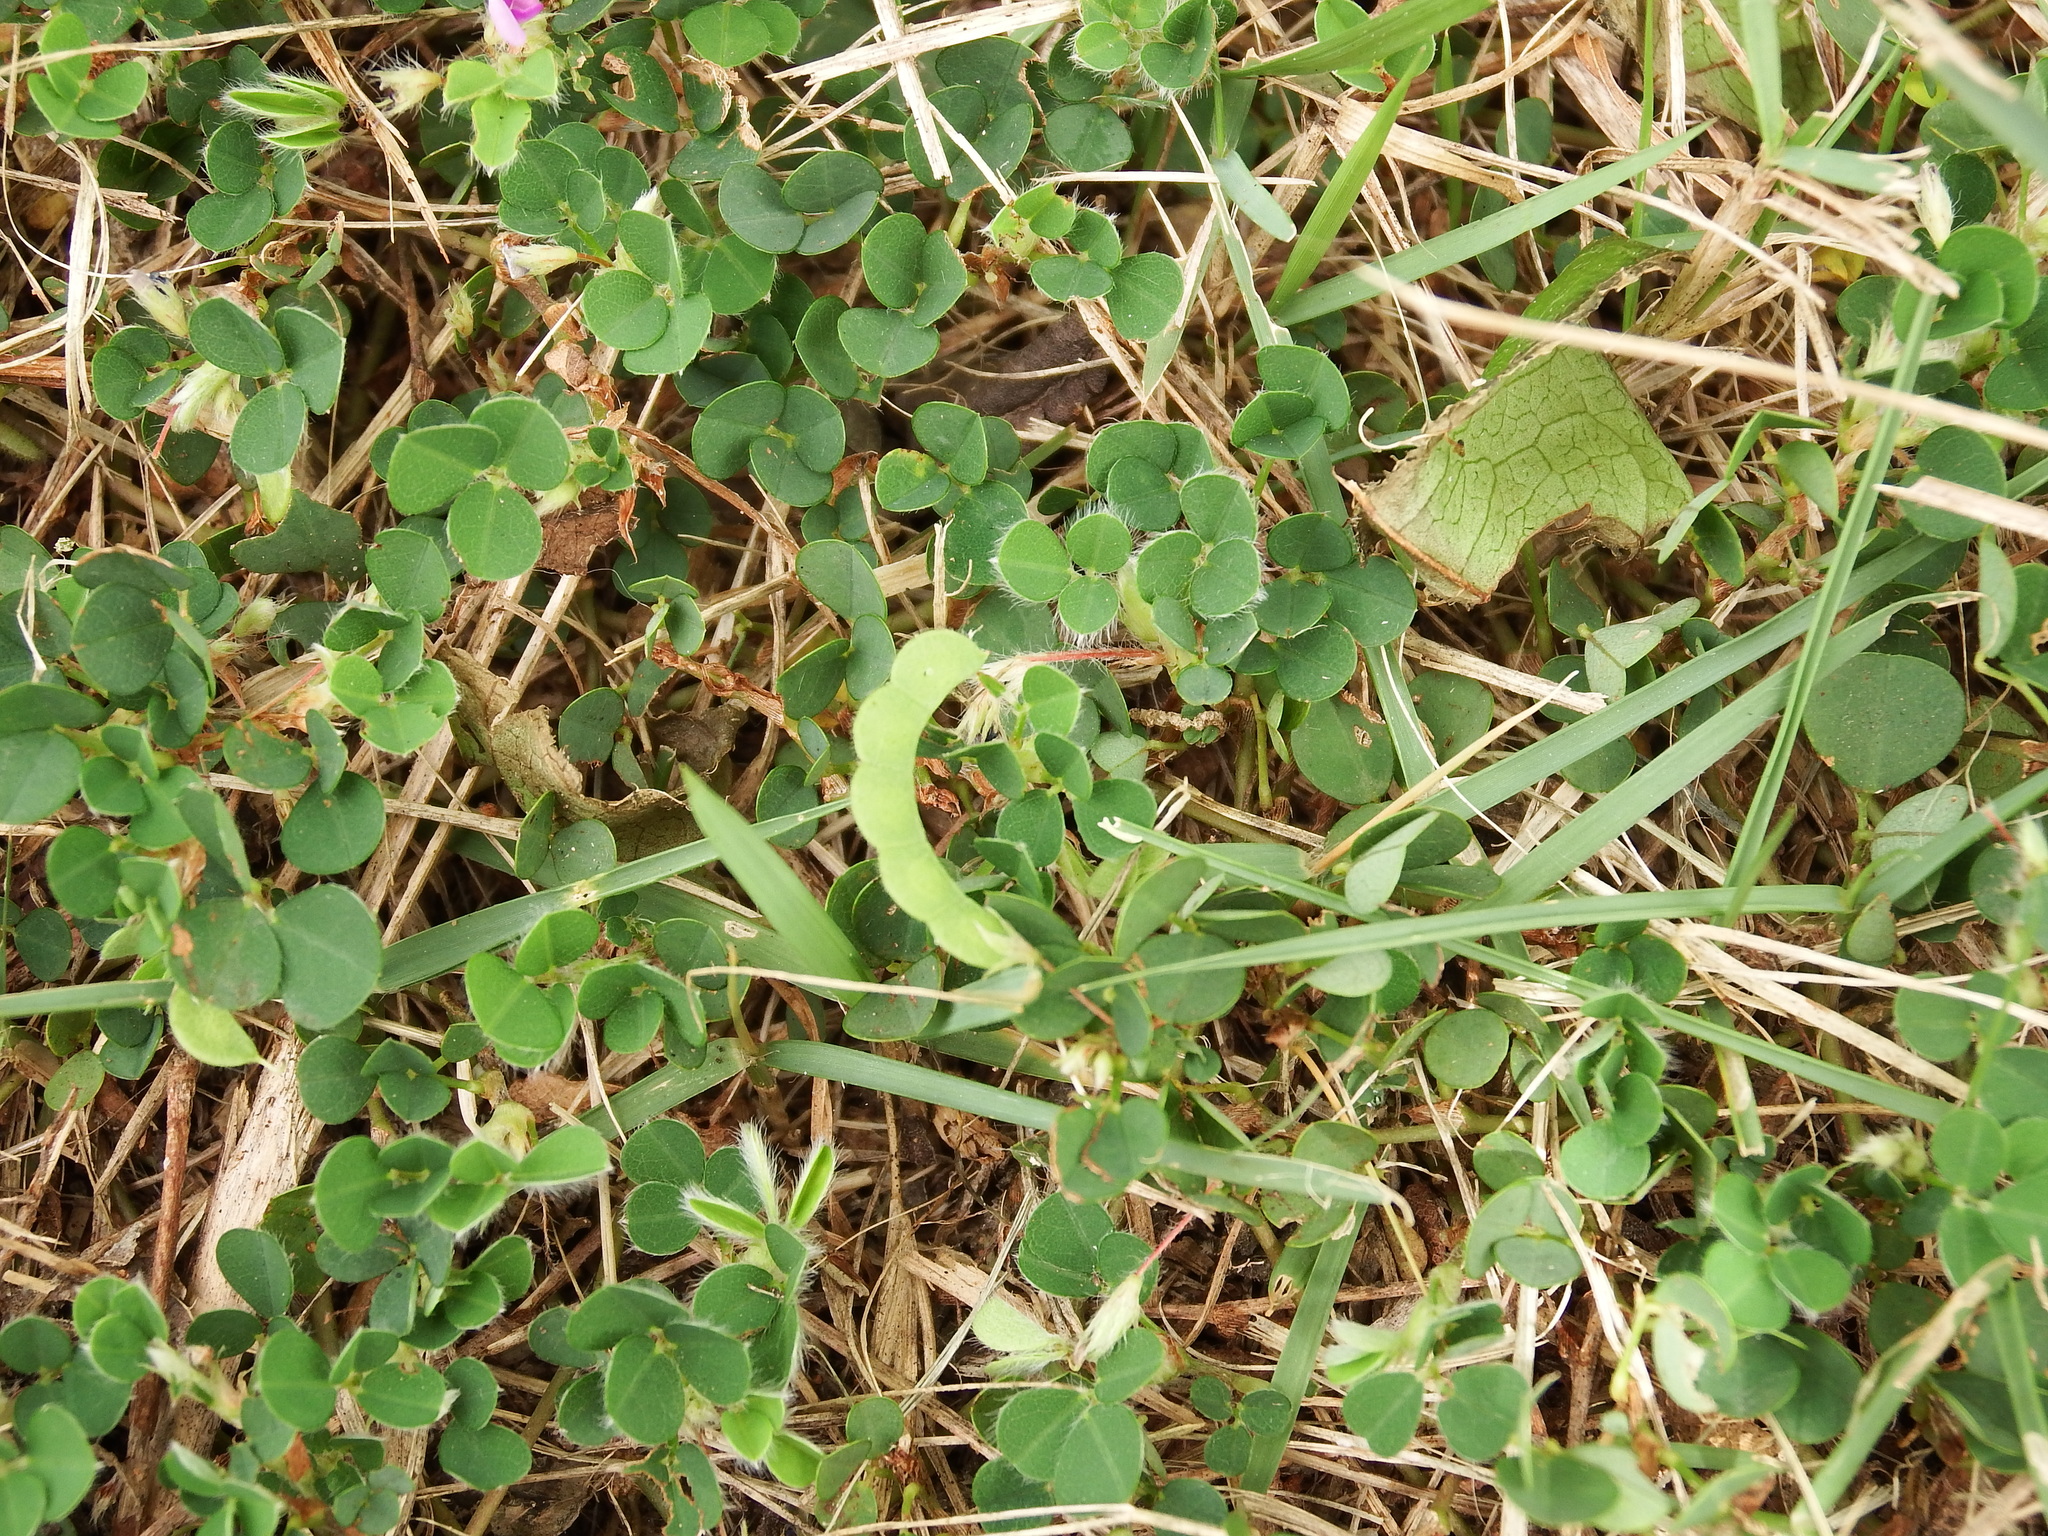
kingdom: Plantae
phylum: Tracheophyta
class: Magnoliopsida
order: Fabales
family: Fabaceae
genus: Grona
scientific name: Grona triflora
